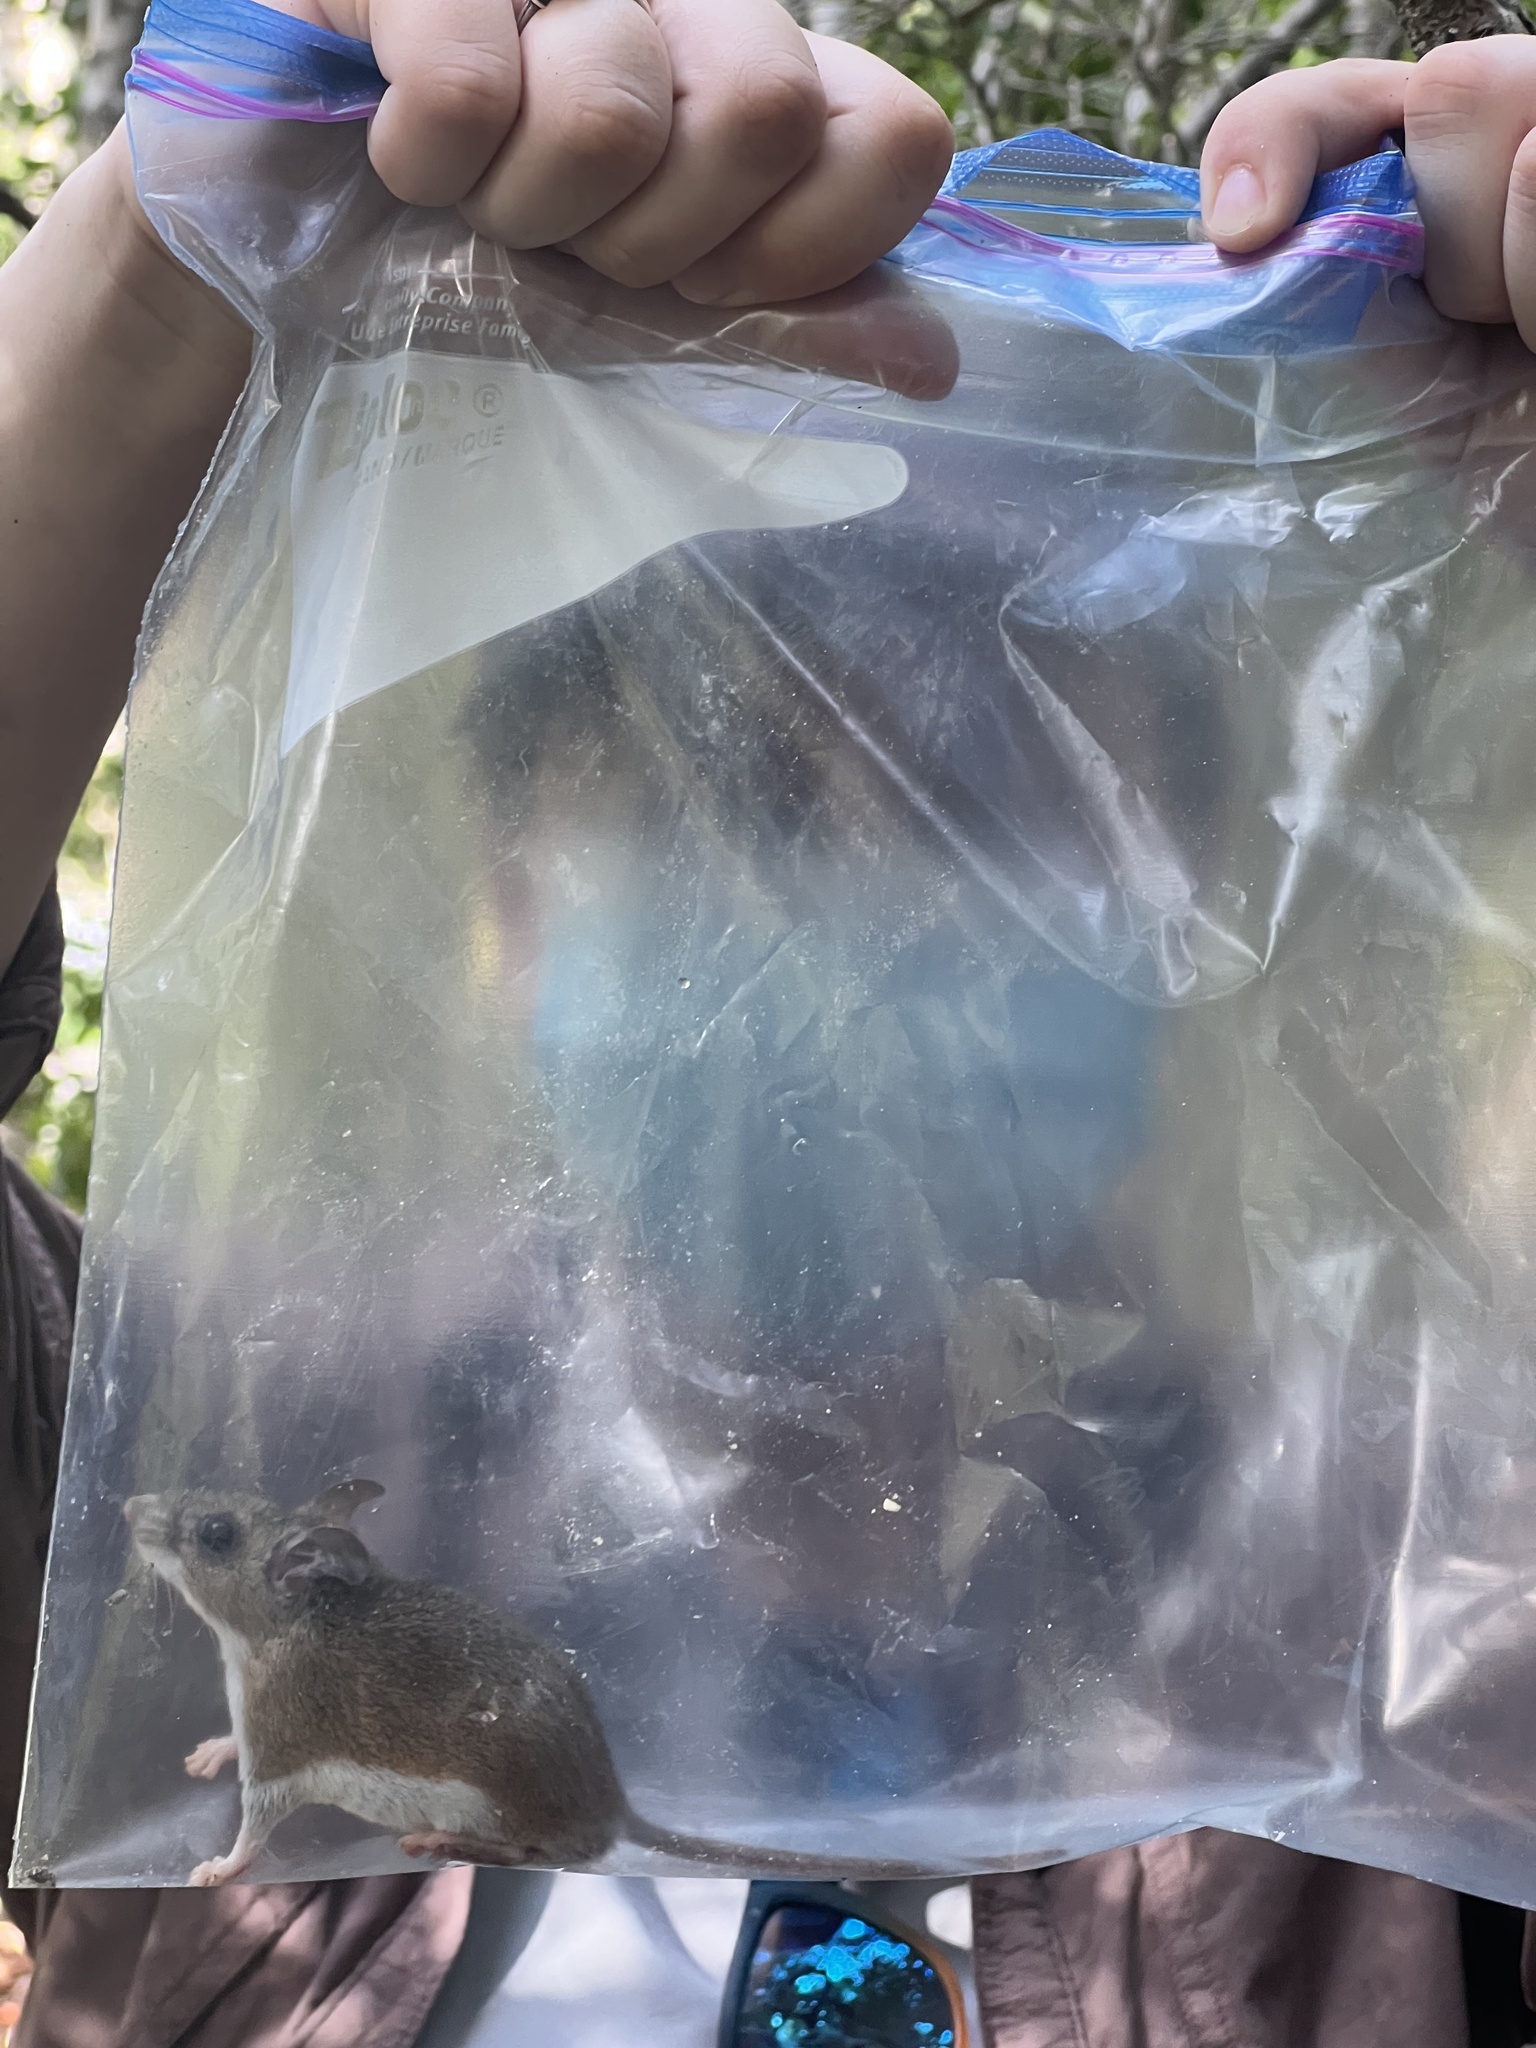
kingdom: Animalia
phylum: Chordata
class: Mammalia
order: Rodentia
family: Cricetidae
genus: Peromyscus
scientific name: Peromyscus gossypinus
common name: Cotton deermouse
